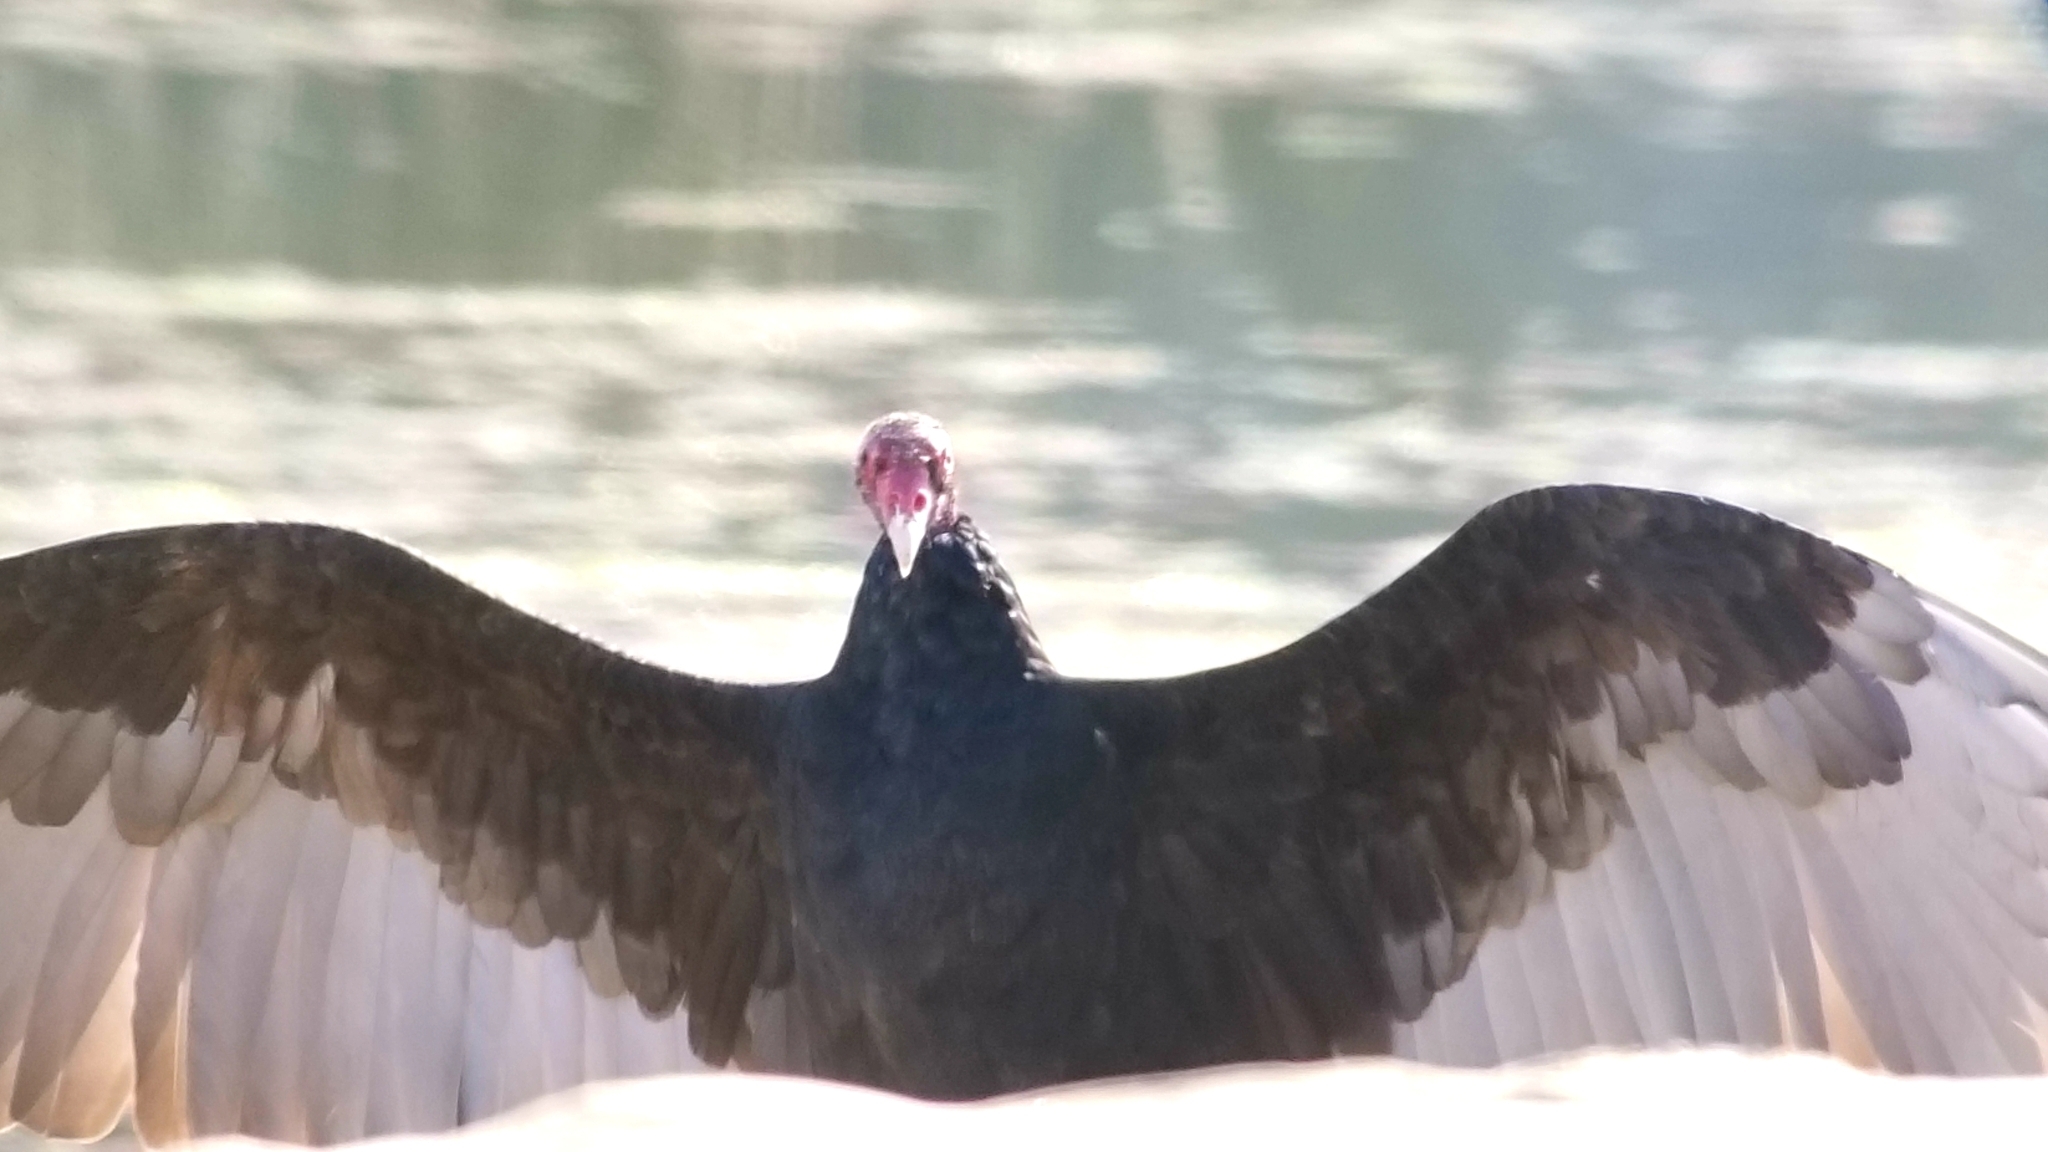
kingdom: Animalia
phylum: Chordata
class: Aves
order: Accipitriformes
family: Cathartidae
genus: Cathartes
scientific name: Cathartes aura
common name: Turkey vulture
